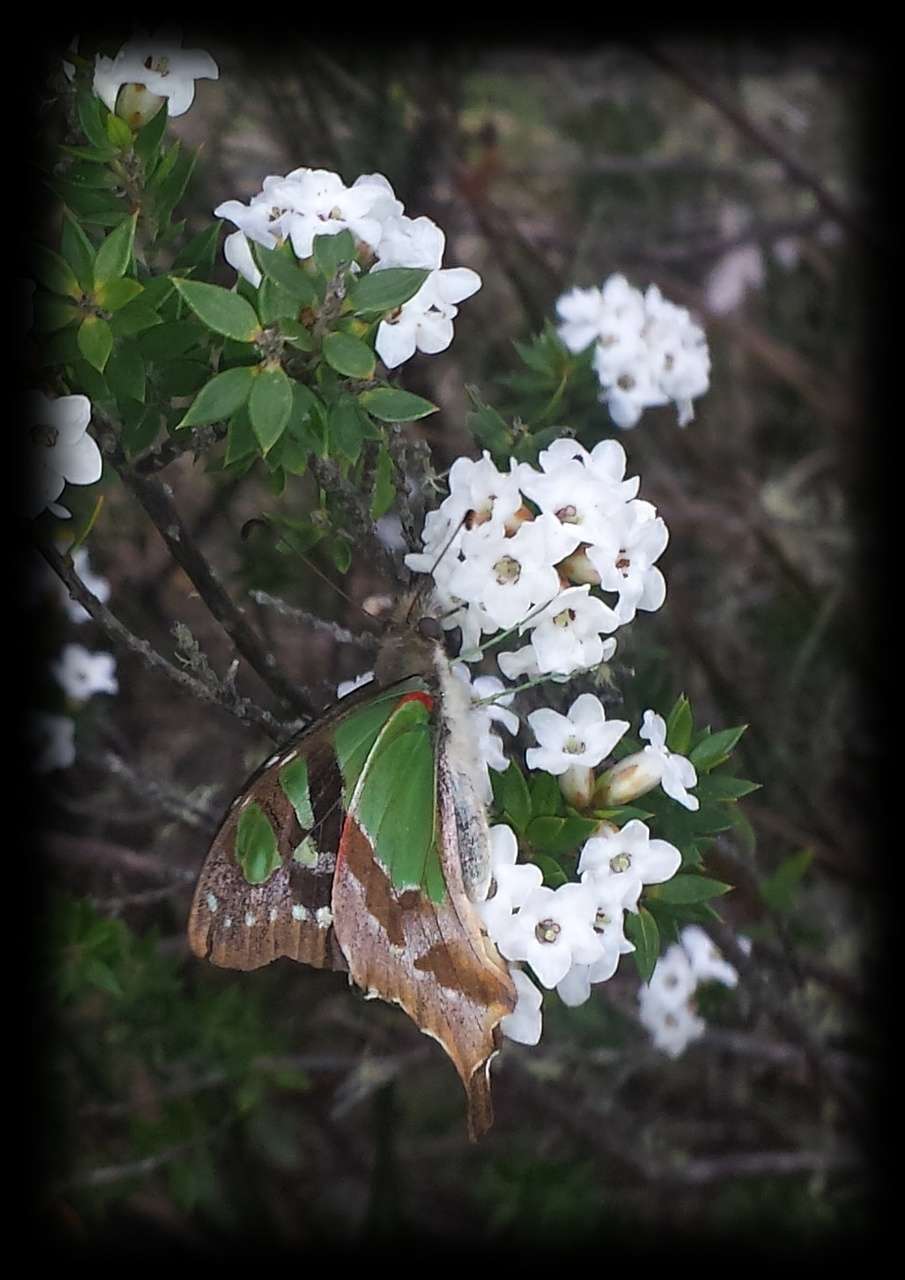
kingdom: Plantae
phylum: Tracheophyta
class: Magnoliopsida
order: Ericales
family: Ericaceae
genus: Epacris
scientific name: Epacris paludosa
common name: Swamp-heath
